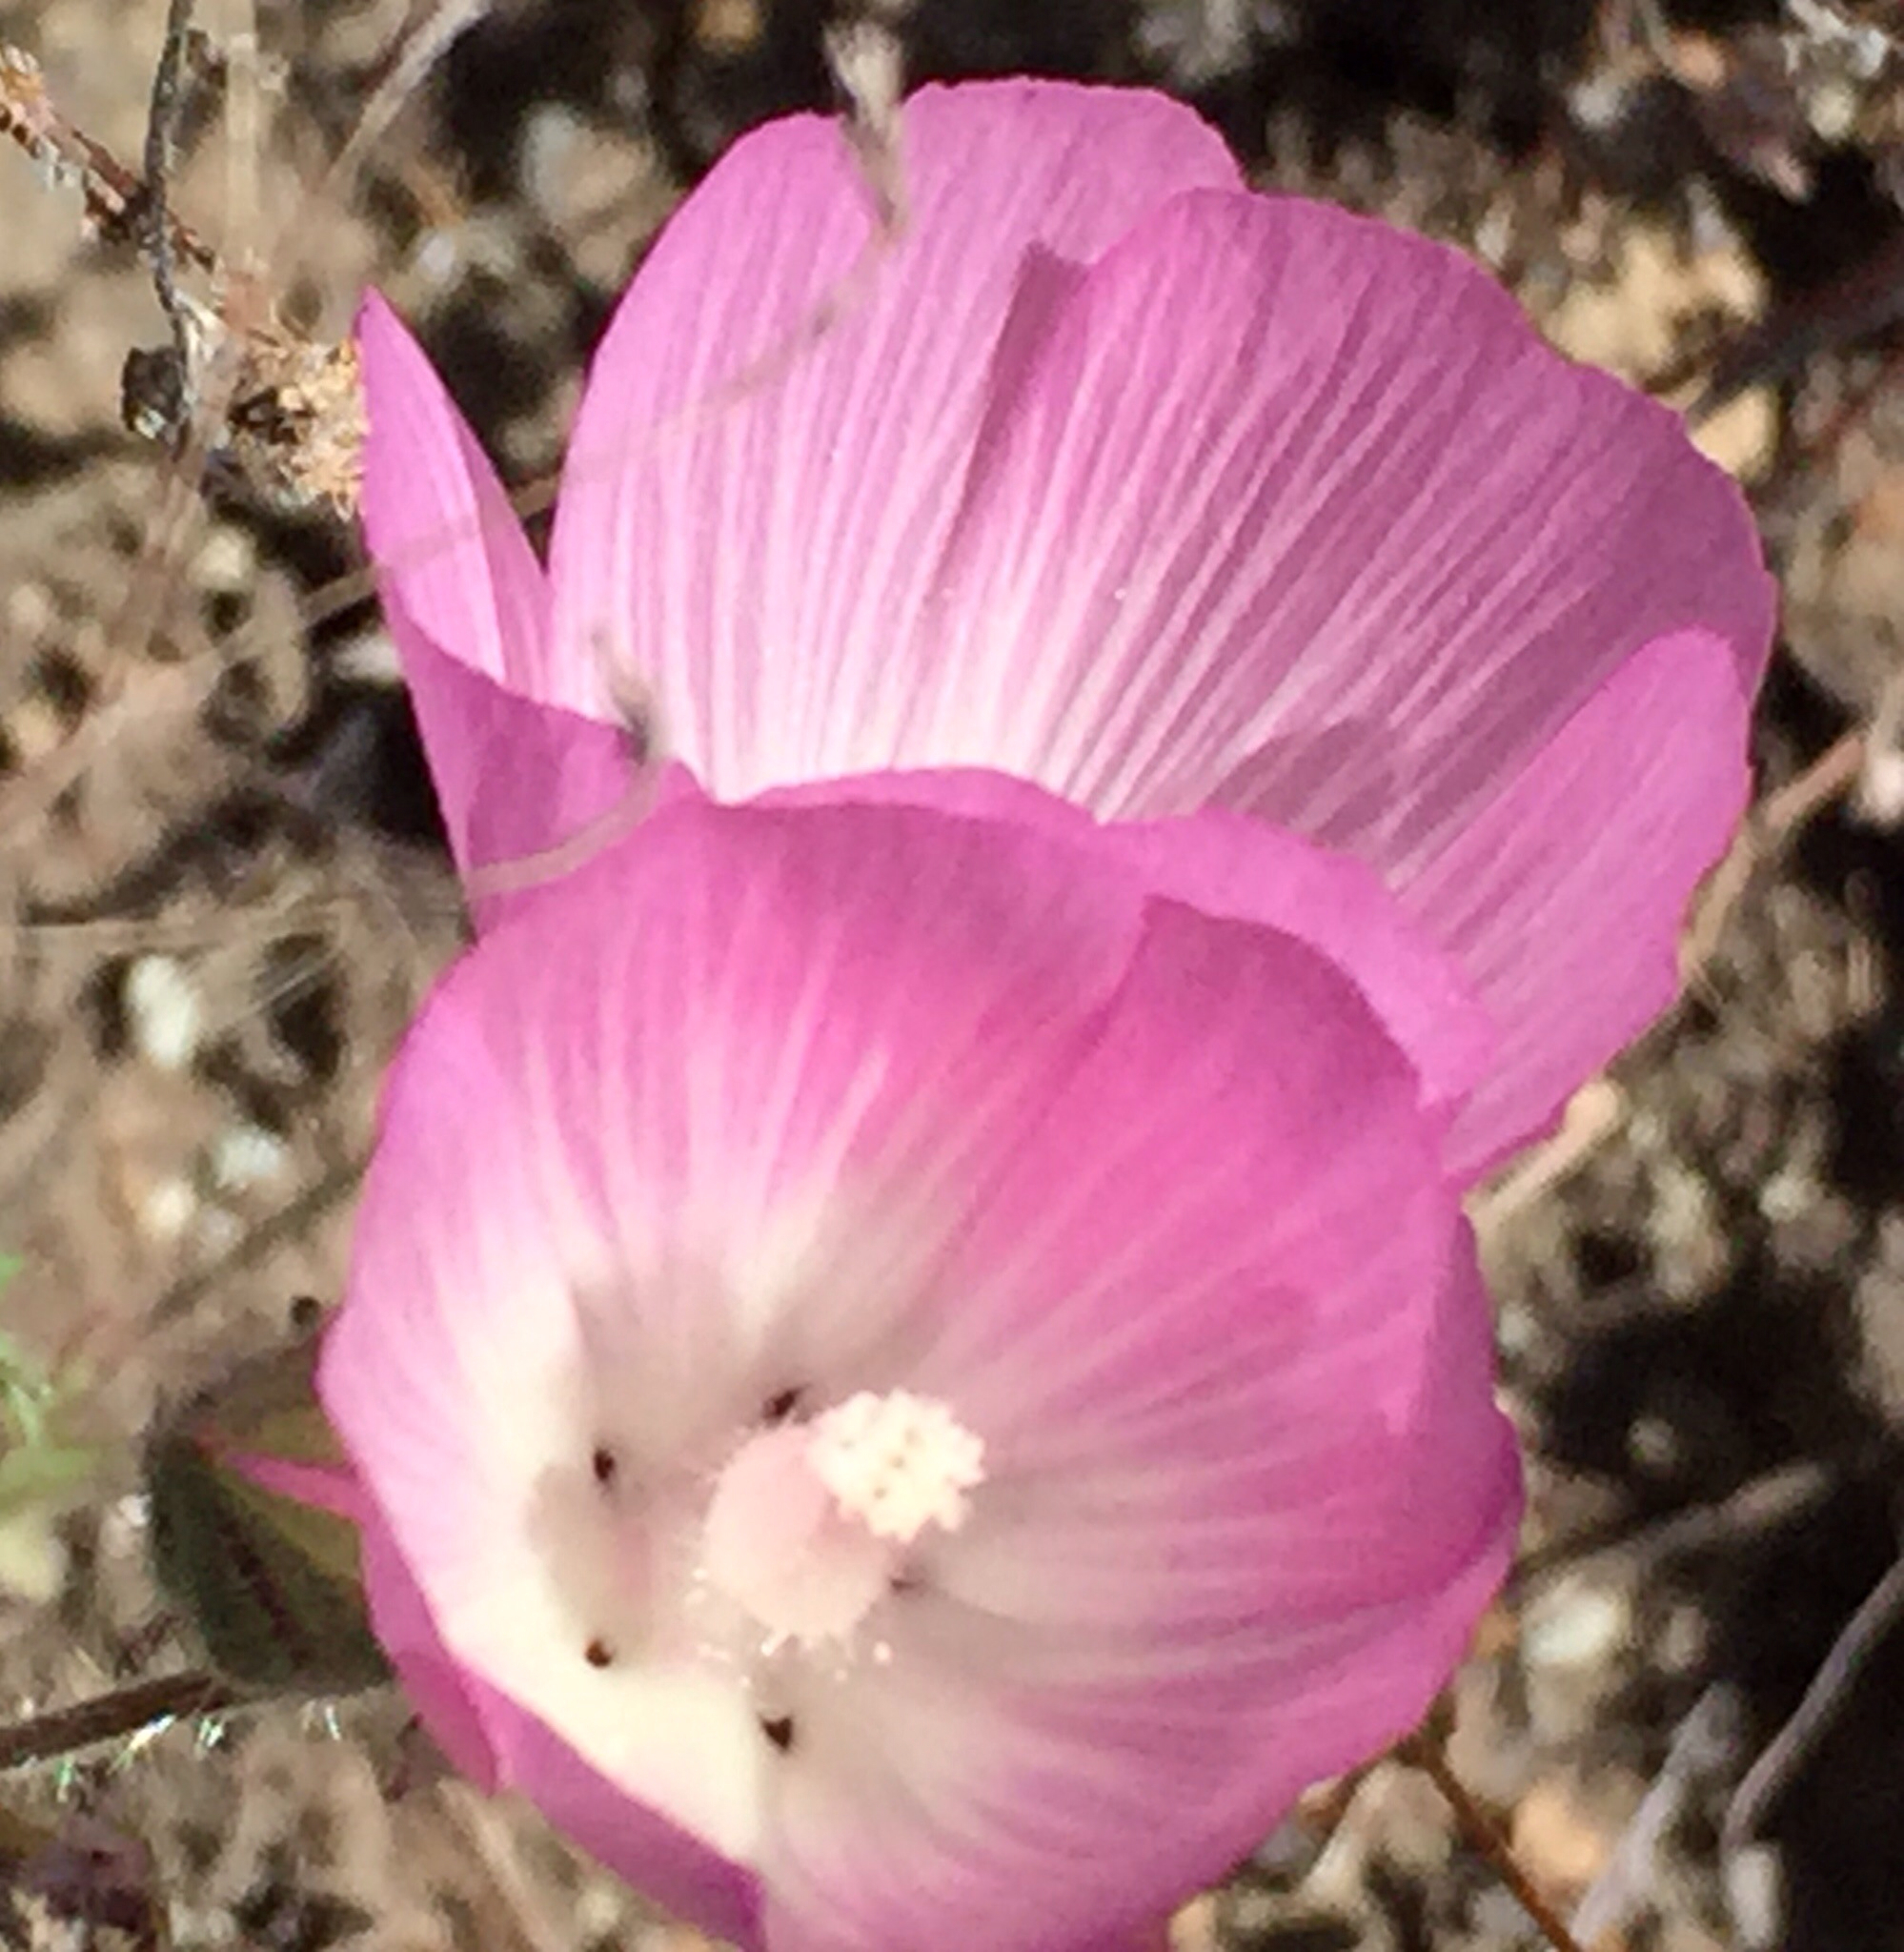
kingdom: Plantae
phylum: Tracheophyta
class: Magnoliopsida
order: Malvales
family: Malvaceae
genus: Sidalcea
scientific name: Sidalcea diploscypha
